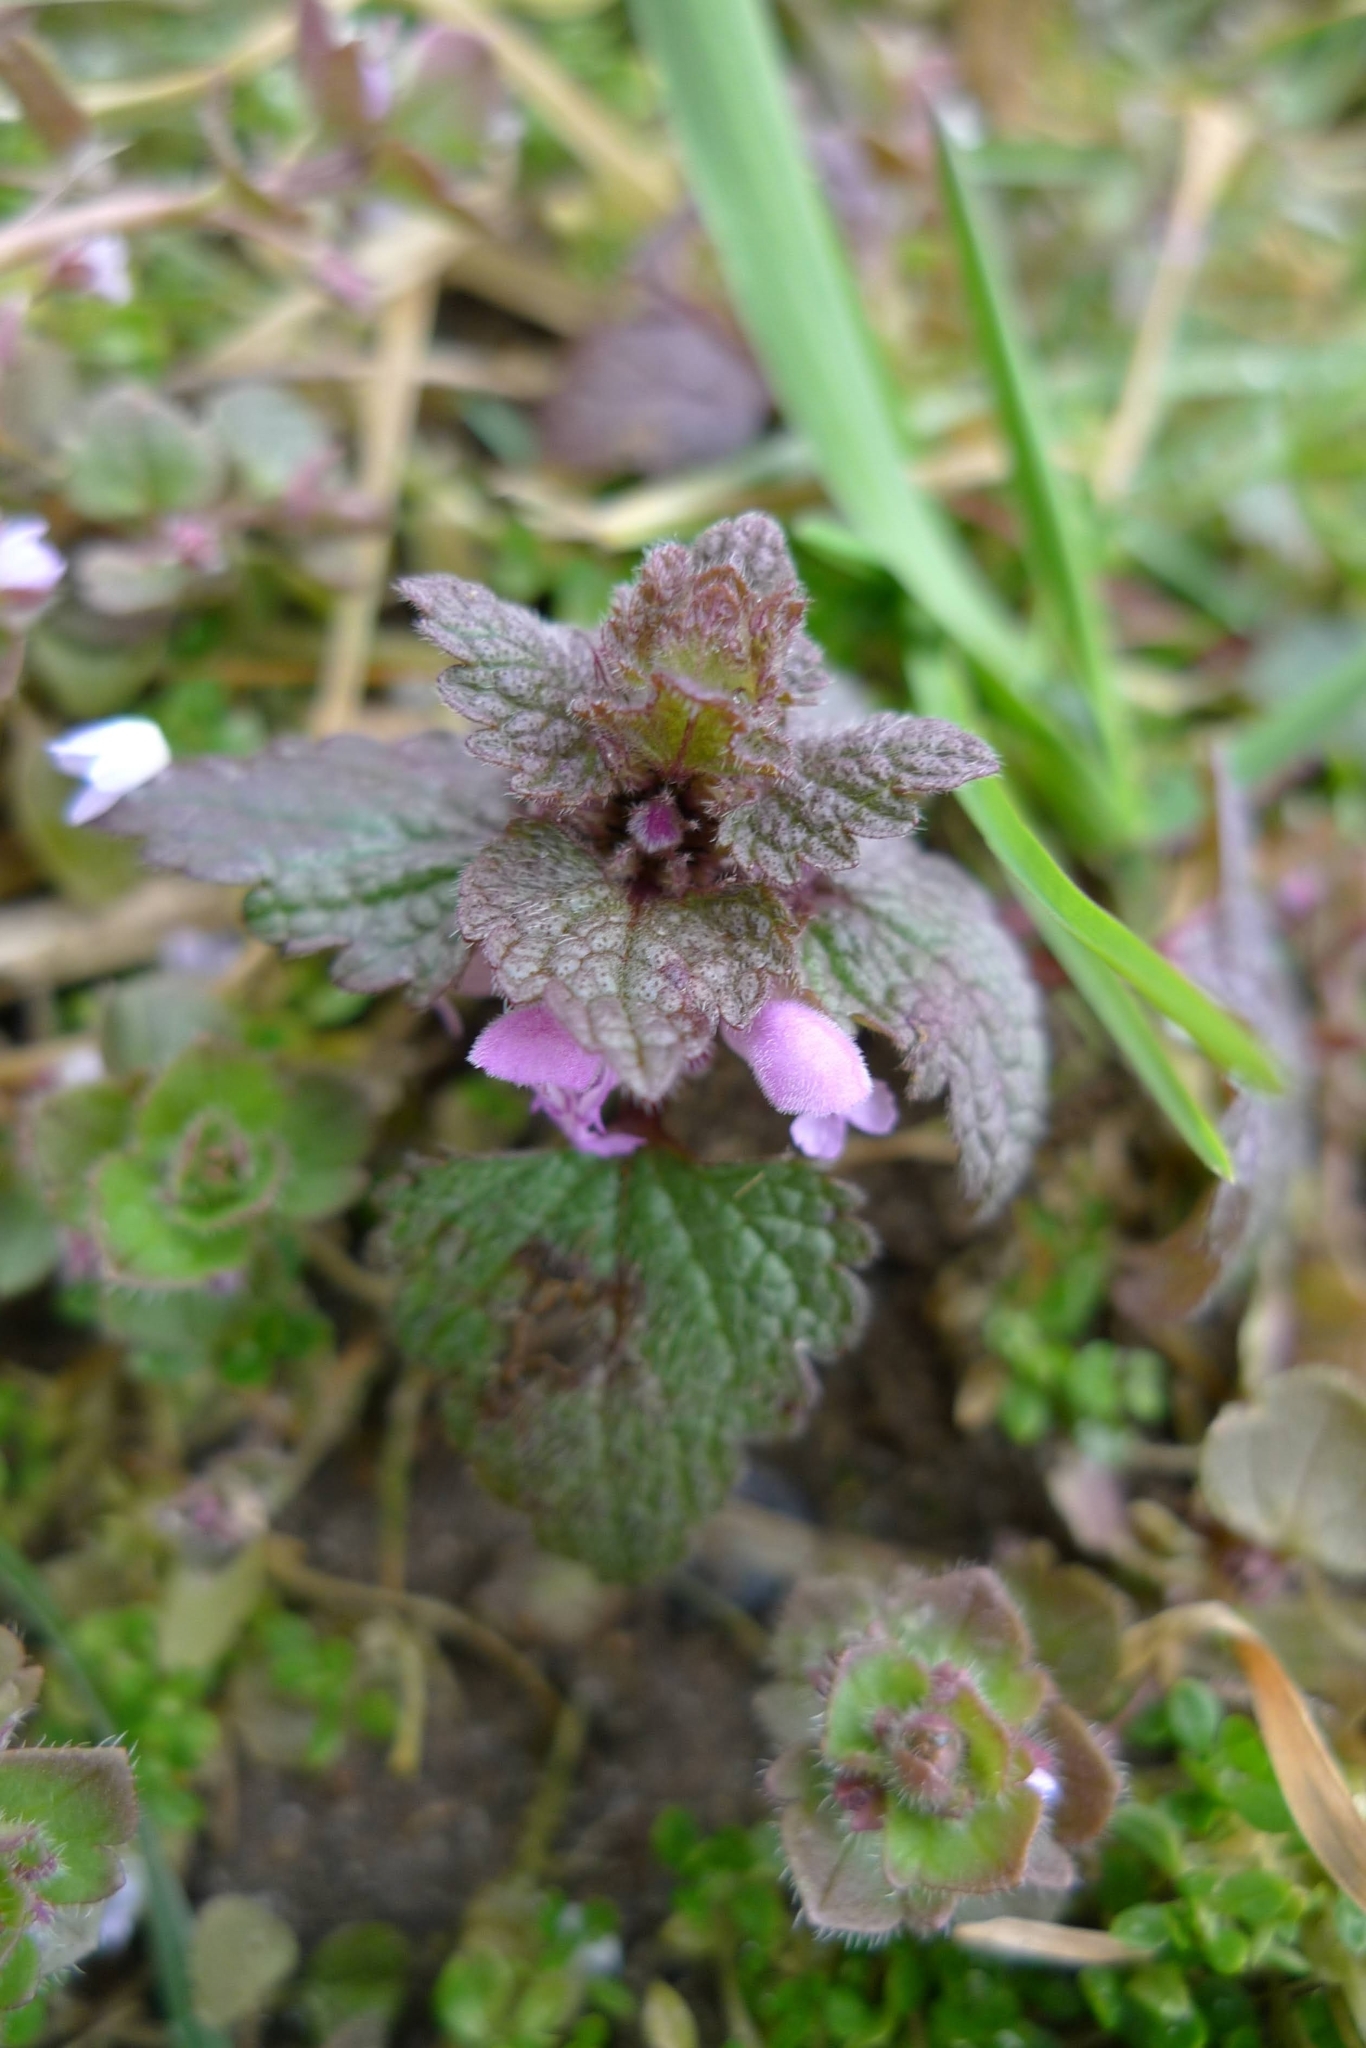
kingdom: Plantae
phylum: Tracheophyta
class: Magnoliopsida
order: Lamiales
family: Lamiaceae
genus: Lamium
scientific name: Lamium purpureum
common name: Red dead-nettle
